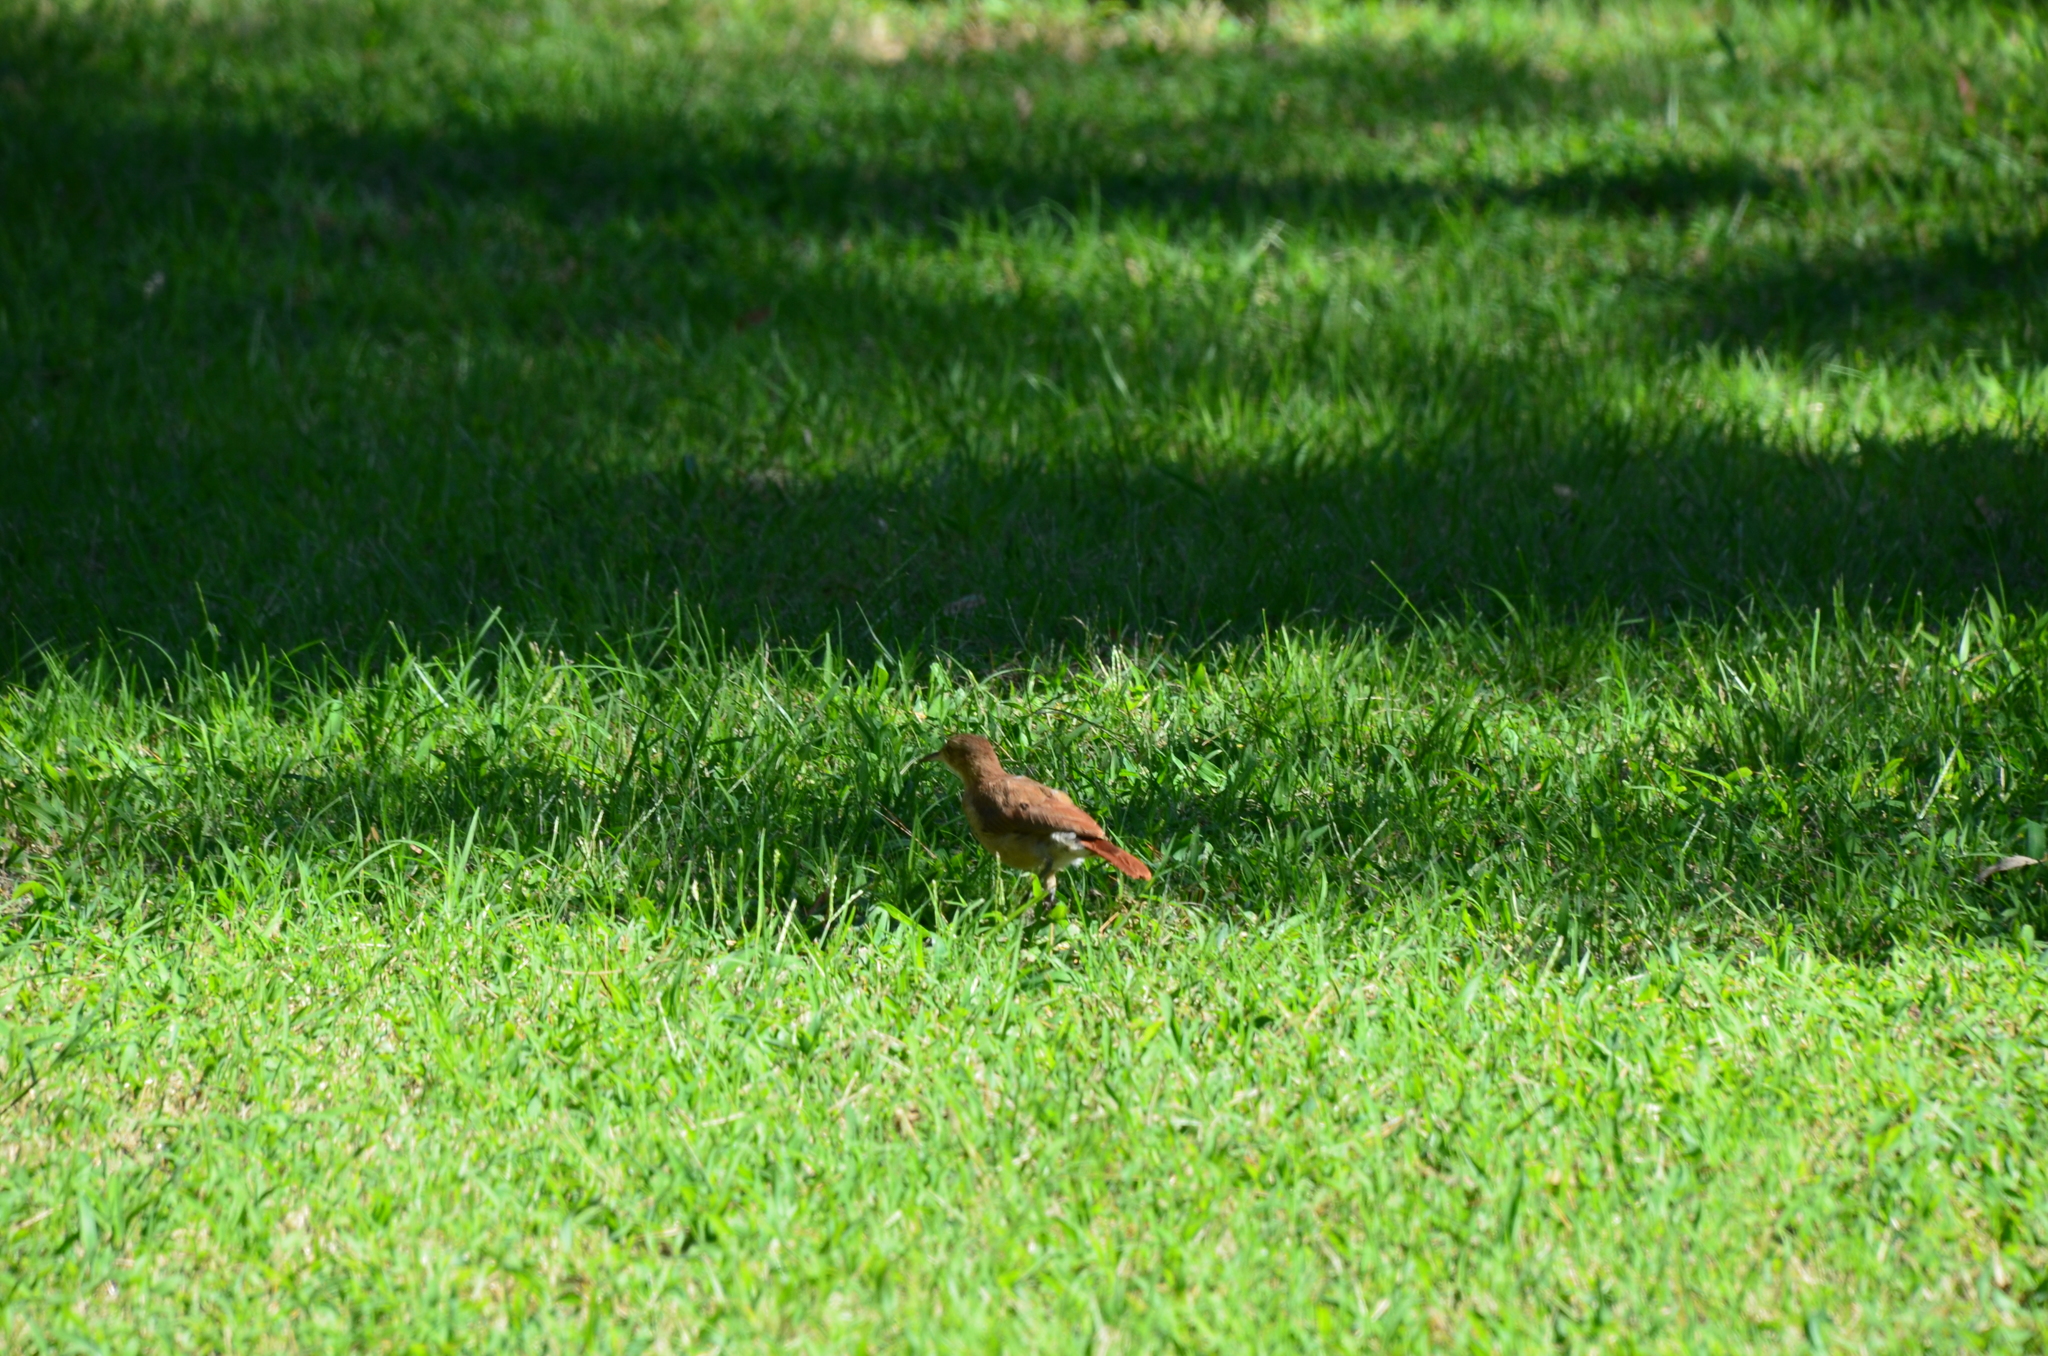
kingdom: Animalia
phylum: Chordata
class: Aves
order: Passeriformes
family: Furnariidae
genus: Furnarius
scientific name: Furnarius rufus
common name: Rufous hornero
